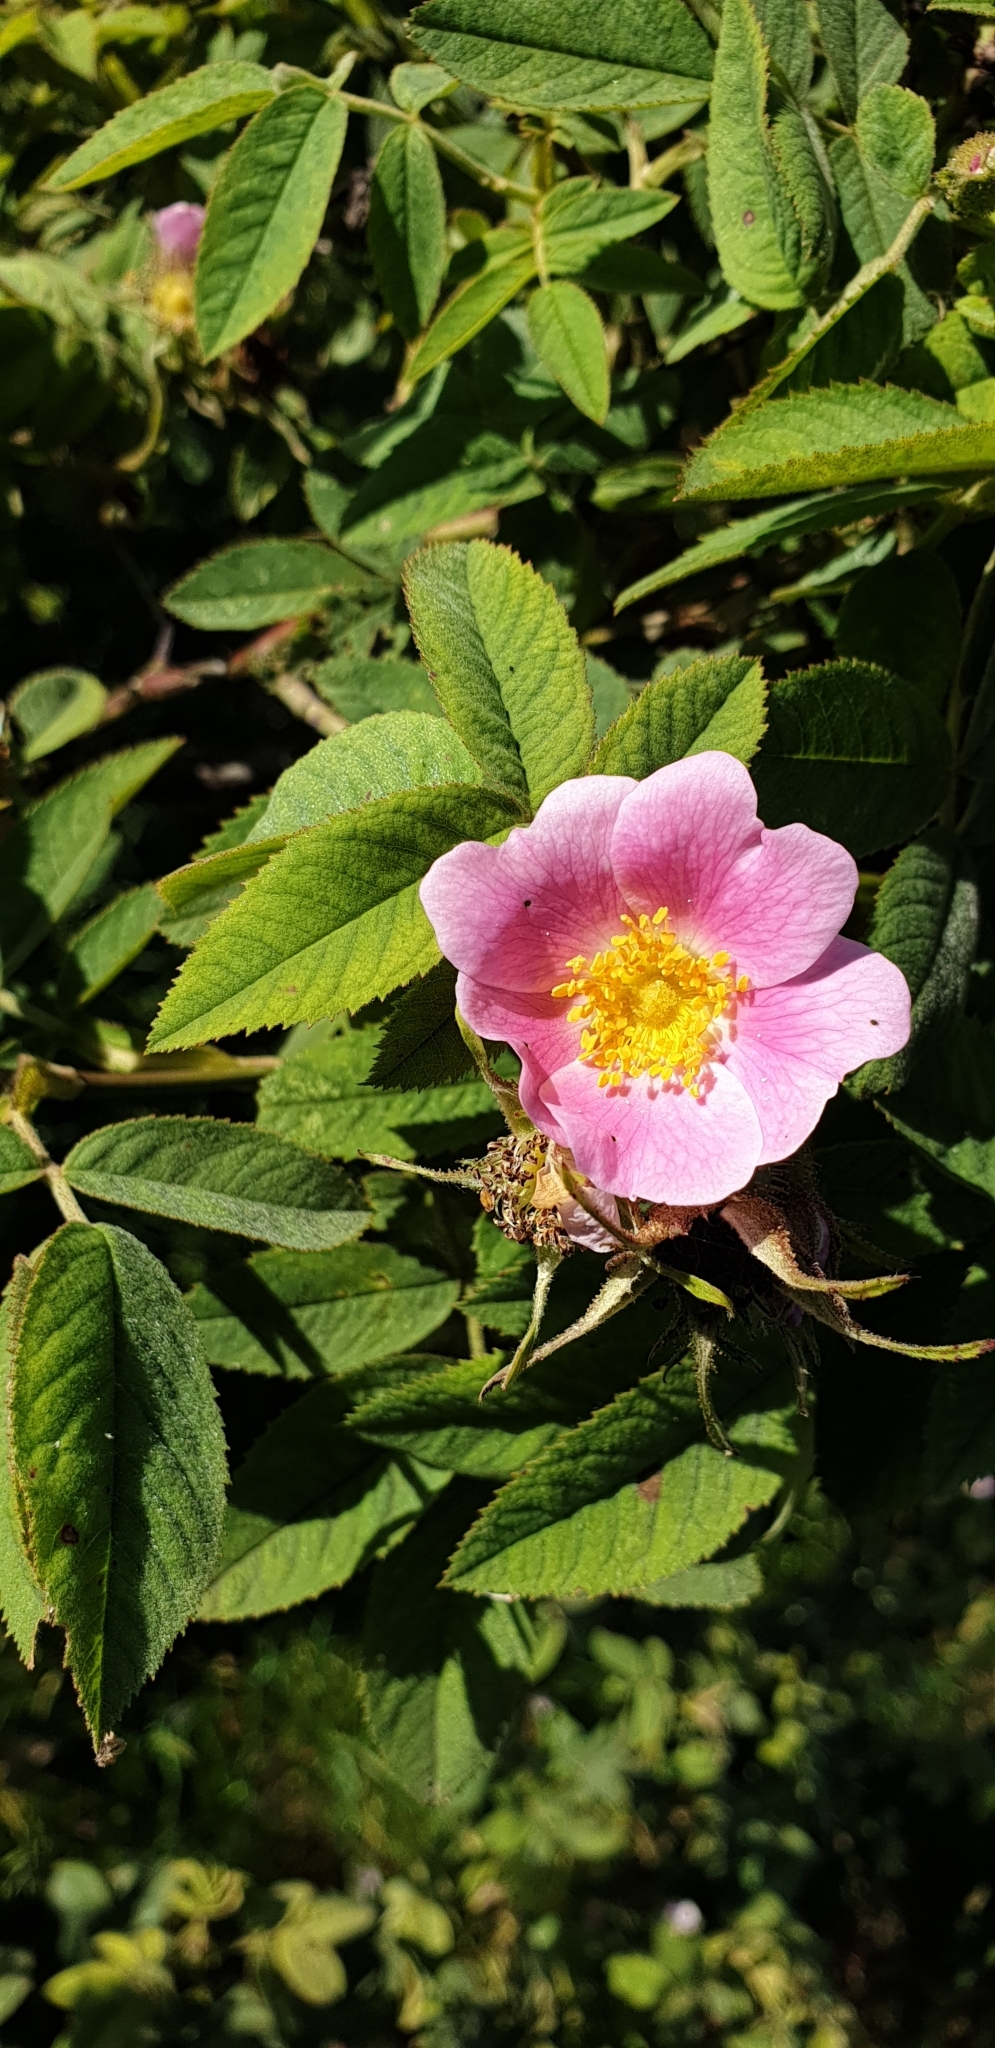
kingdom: Plantae
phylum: Tracheophyta
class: Magnoliopsida
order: Rosales
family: Rosaceae
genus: Rosa
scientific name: Rosa villosa
